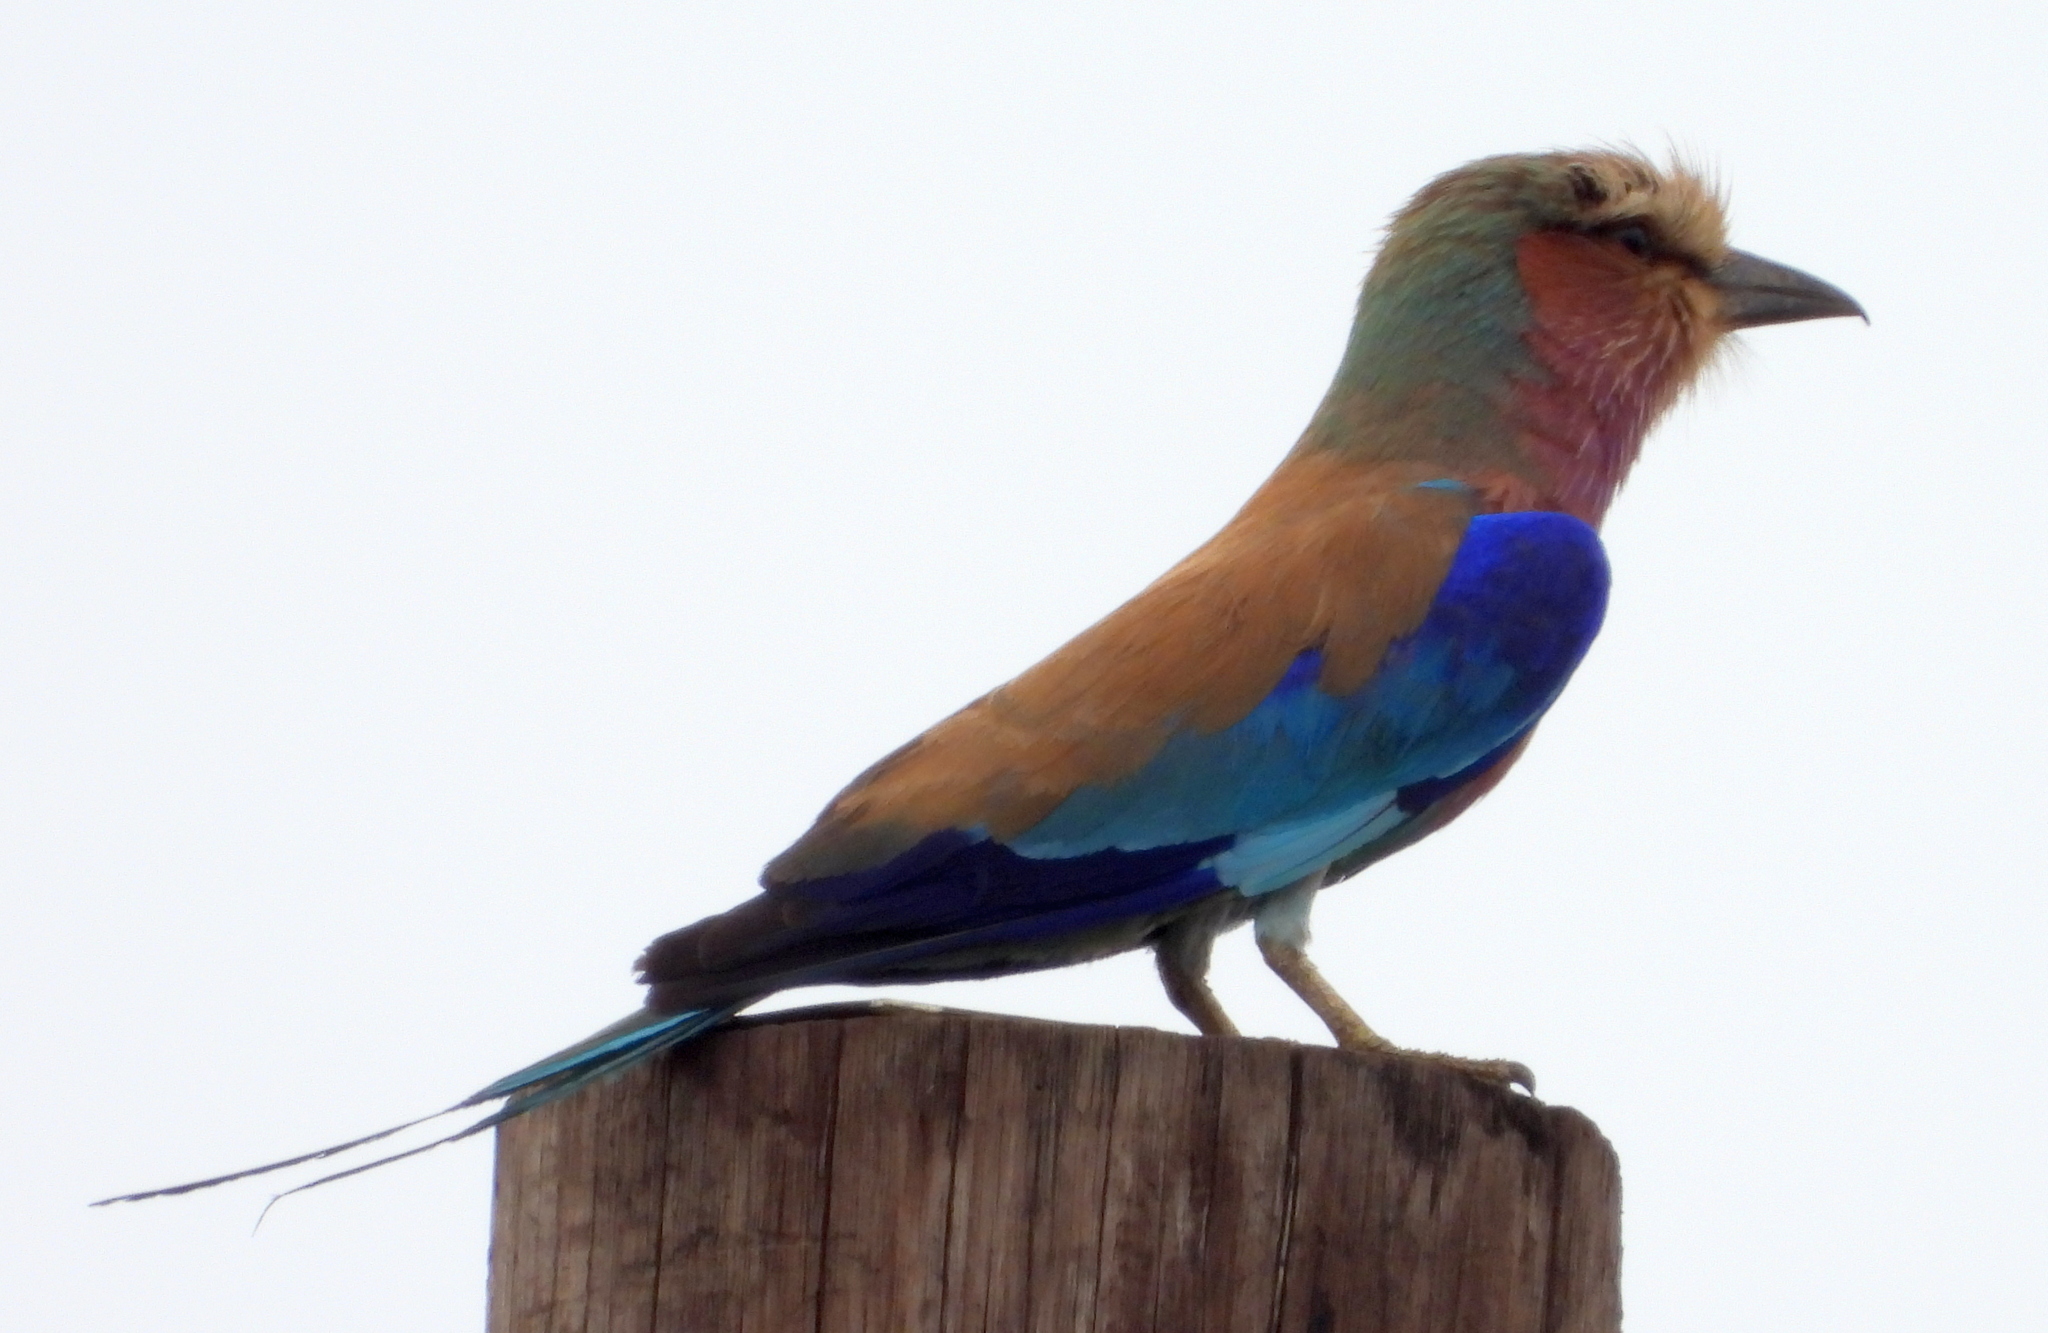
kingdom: Animalia
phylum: Chordata
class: Aves
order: Coraciiformes
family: Coraciidae
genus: Coracias
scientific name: Coracias caudatus
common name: Lilac-breasted roller
